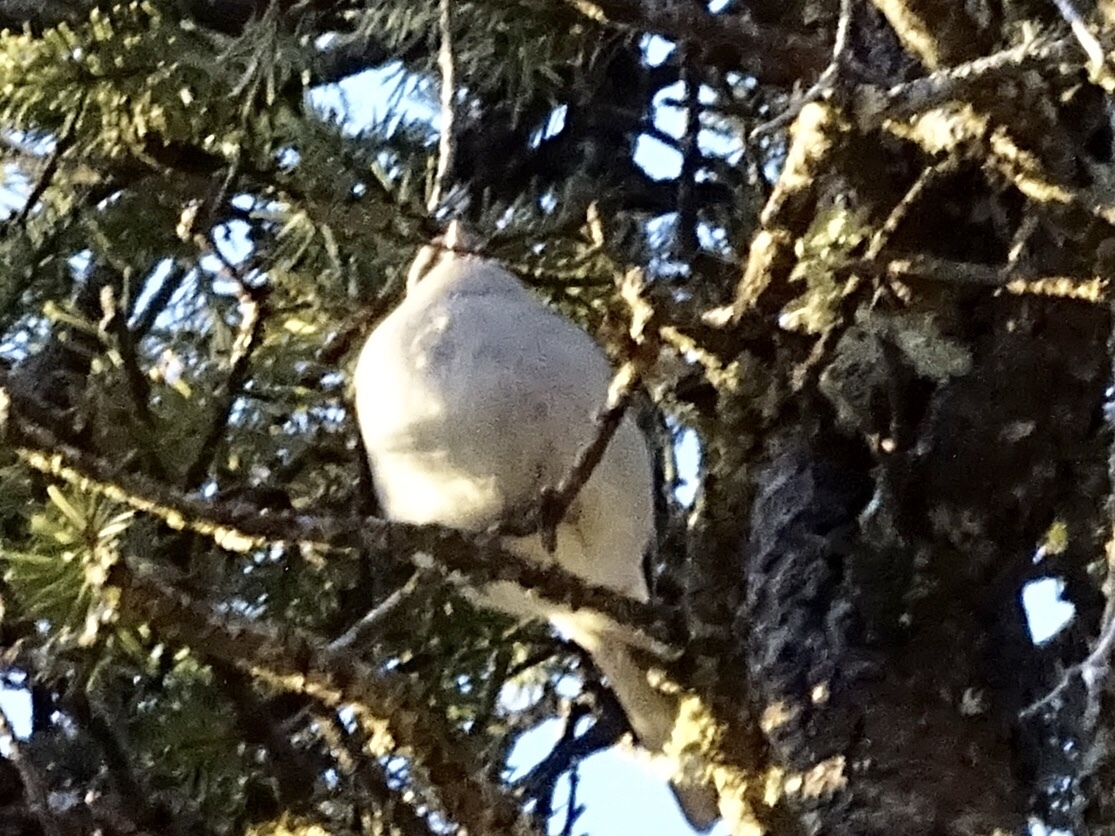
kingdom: Animalia
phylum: Chordata
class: Aves
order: Passeriformes
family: Passerellidae
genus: Junco
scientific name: Junco hyemalis
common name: Dark-eyed junco
